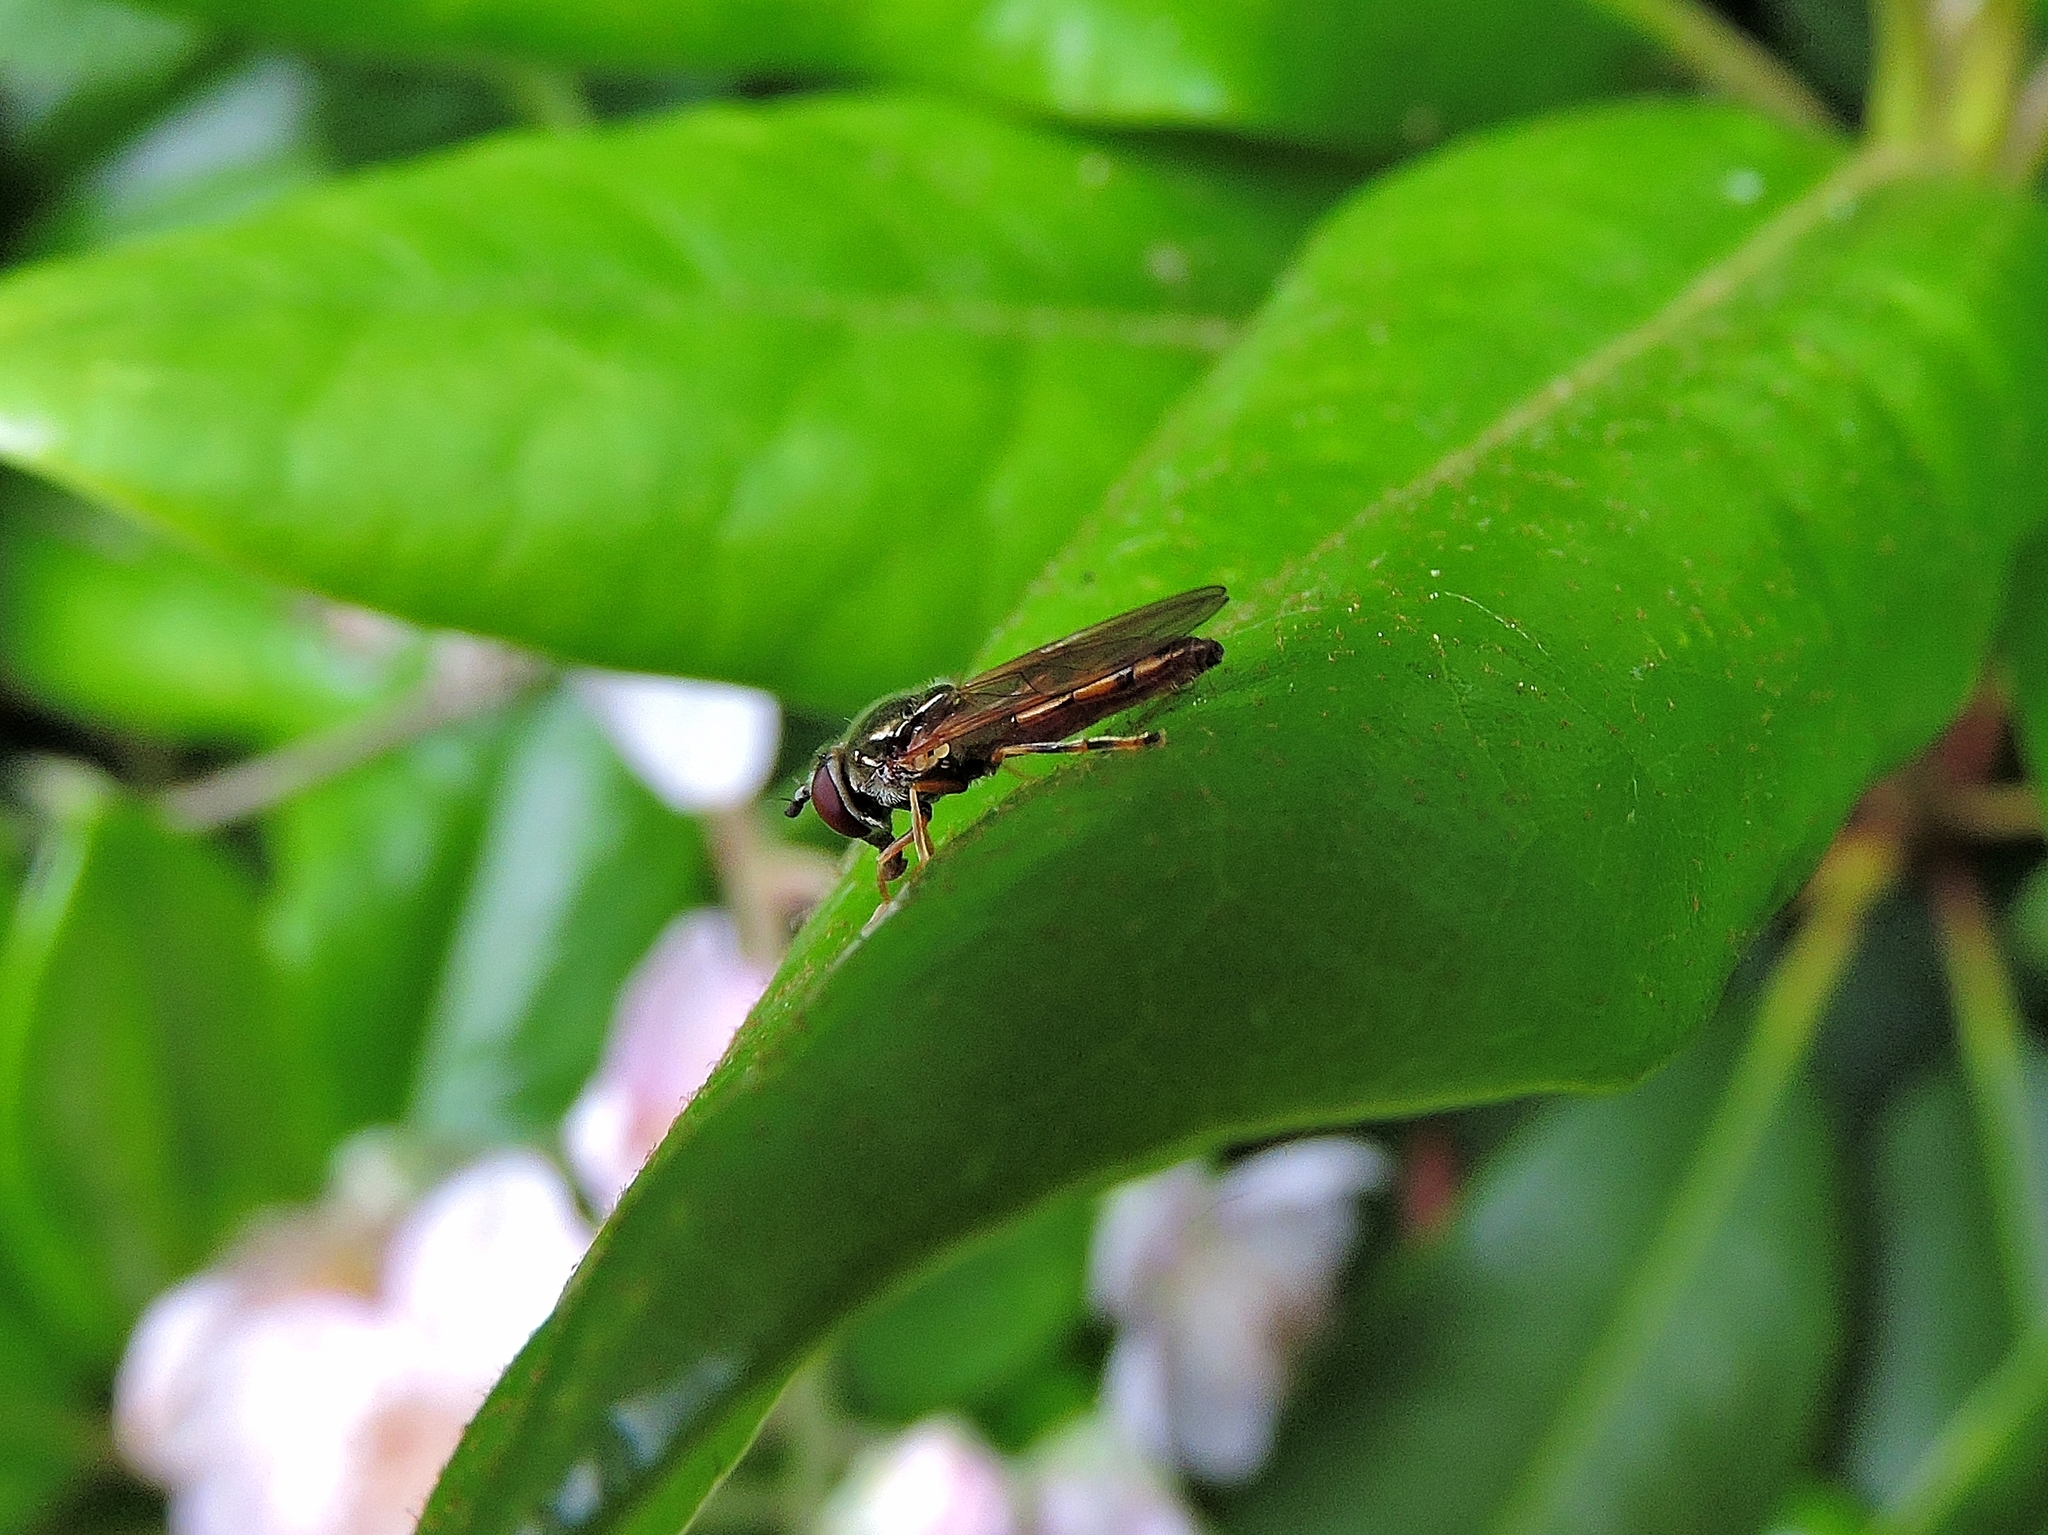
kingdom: Animalia
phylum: Arthropoda
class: Insecta
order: Diptera
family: Syrphidae
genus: Platycheirus
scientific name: Platycheirus
